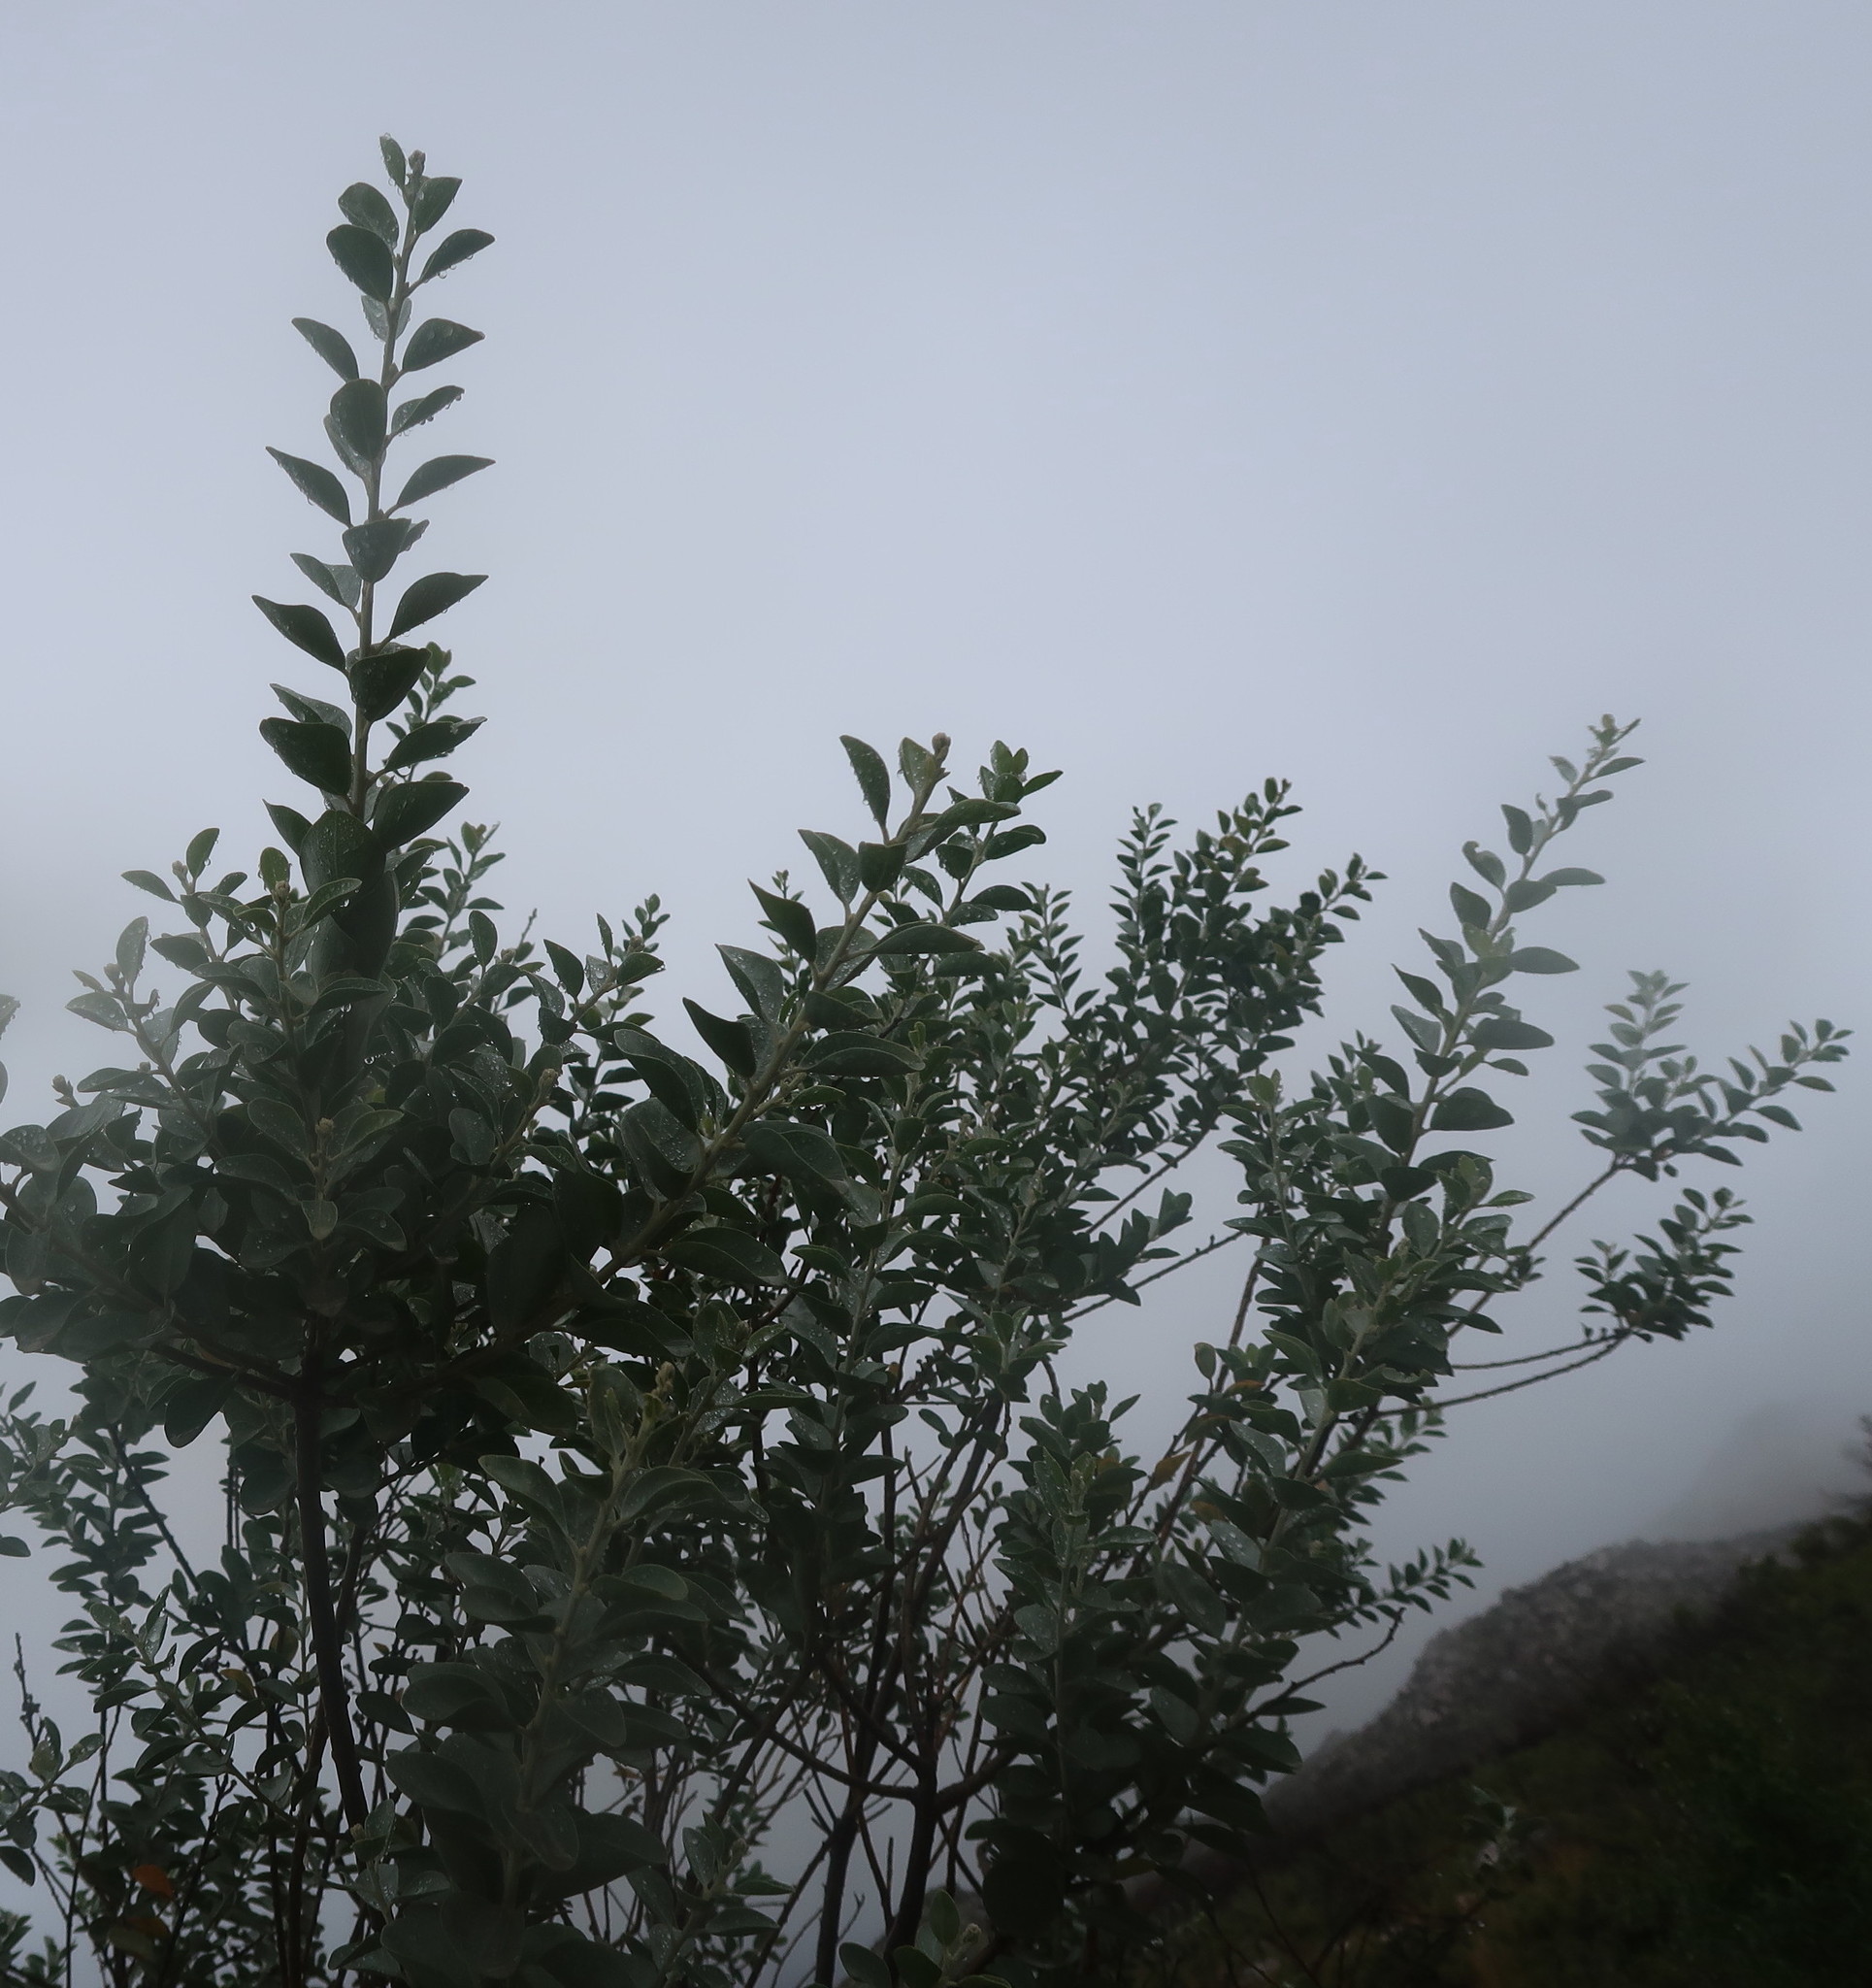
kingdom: Plantae
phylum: Tracheophyta
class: Magnoliopsida
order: Fabales
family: Fabaceae
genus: Stirtonanthus
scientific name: Stirtonanthus taylorianus
